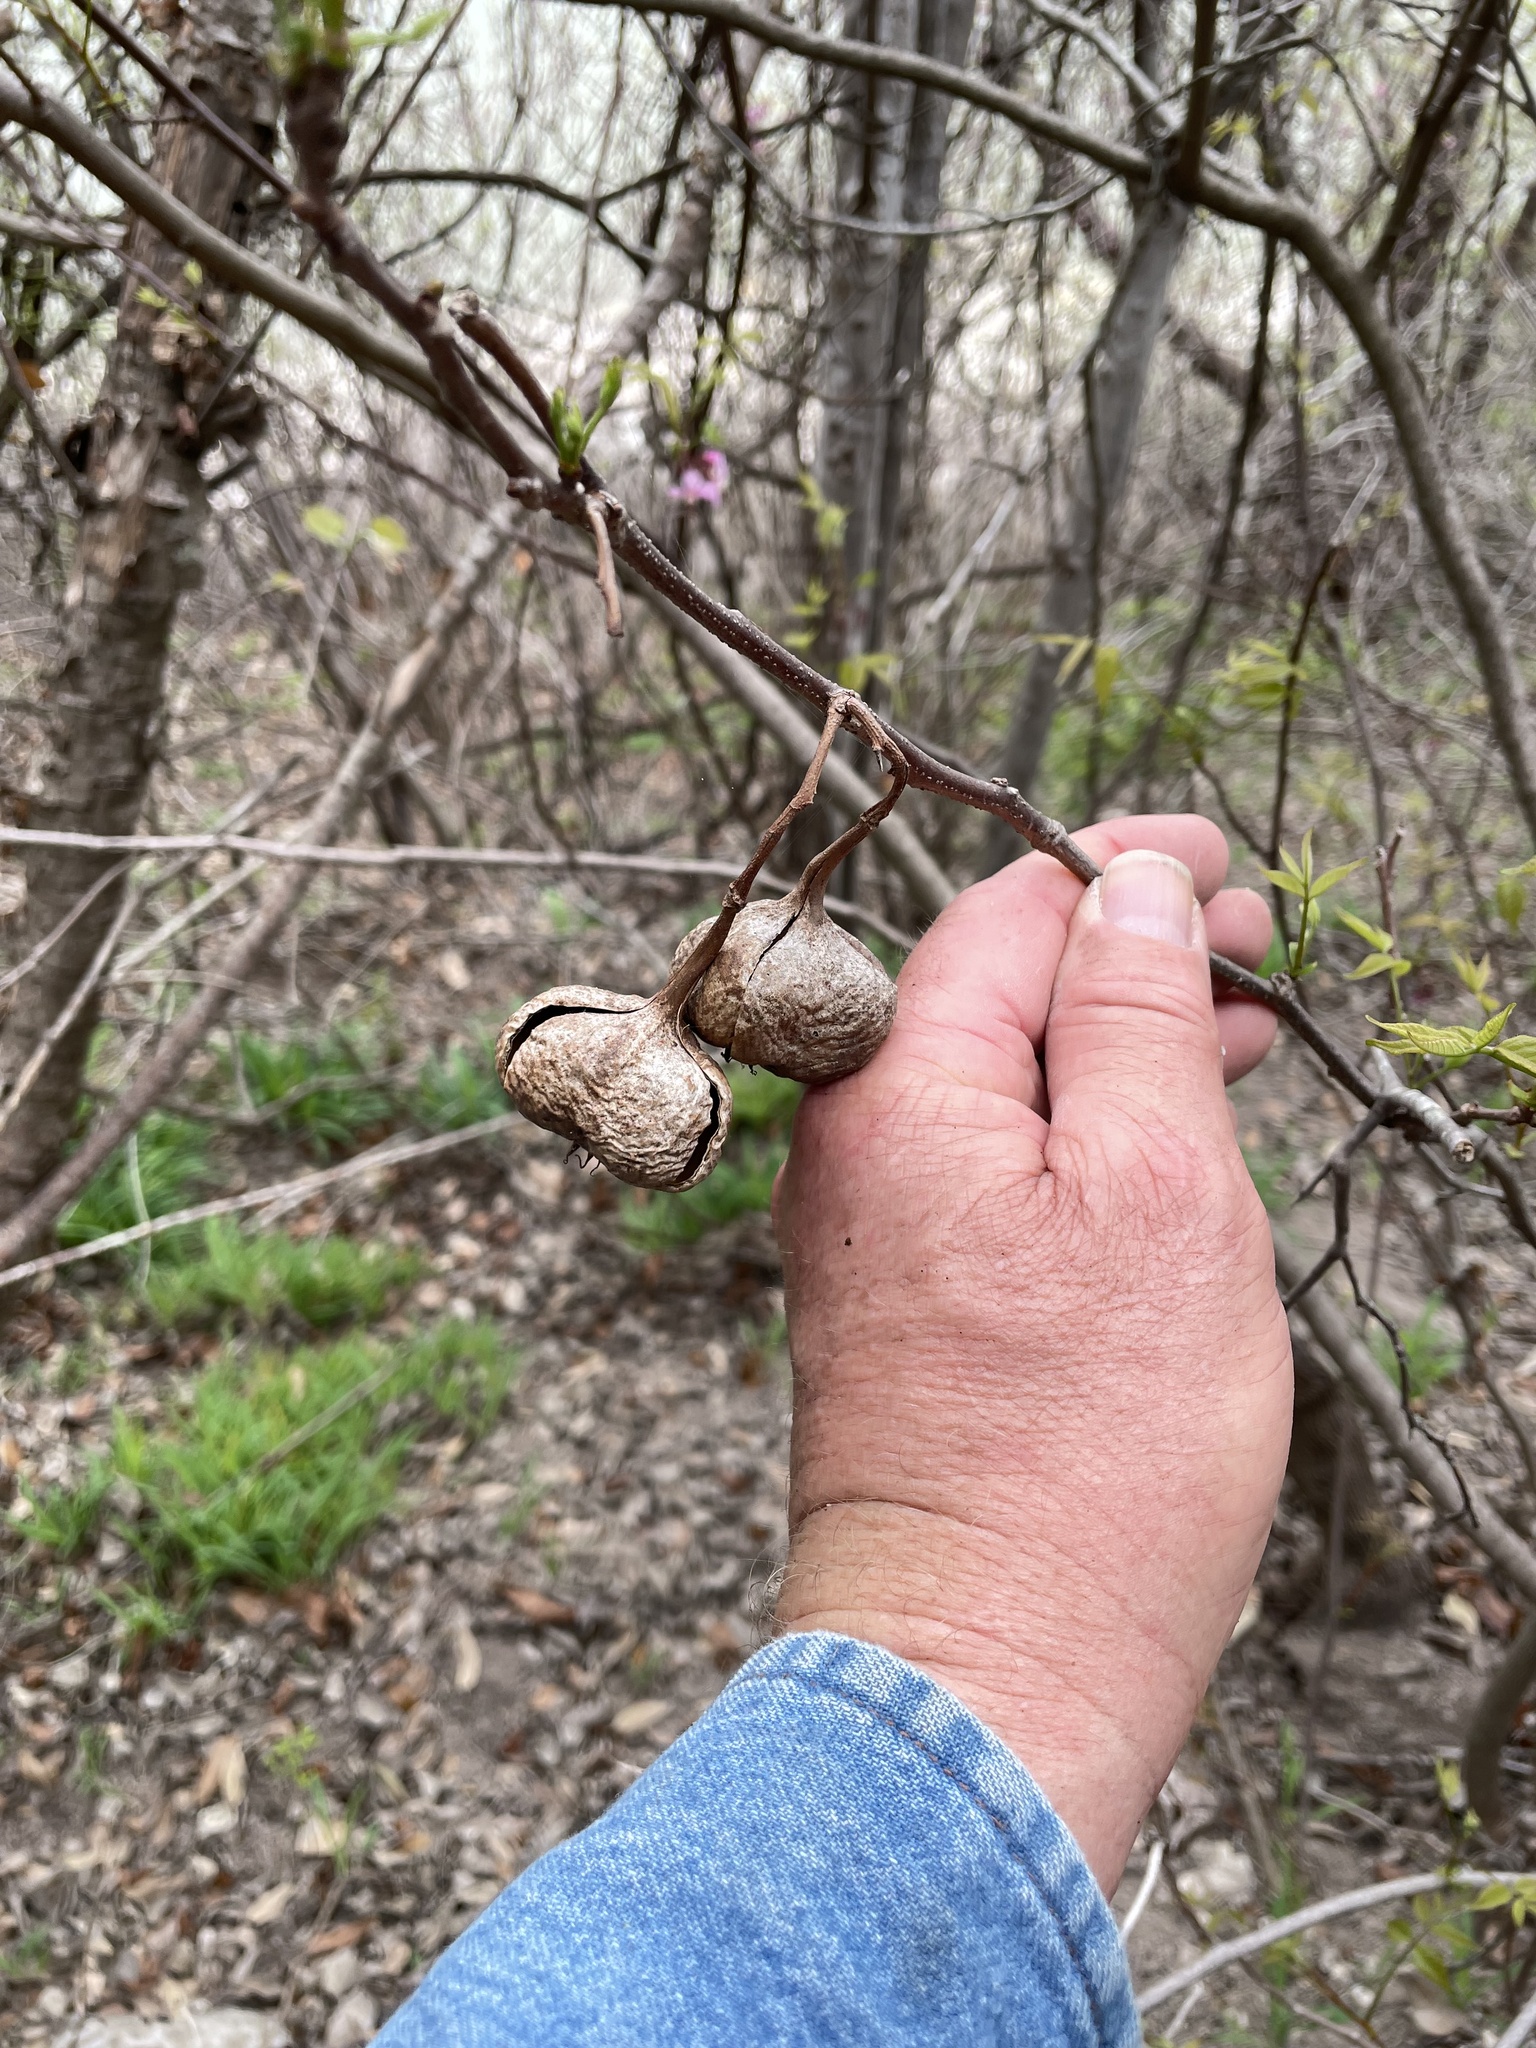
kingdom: Plantae
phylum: Tracheophyta
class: Magnoliopsida
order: Sapindales
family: Sapindaceae
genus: Ungnadia
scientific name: Ungnadia speciosa
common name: Texas-buckeye
